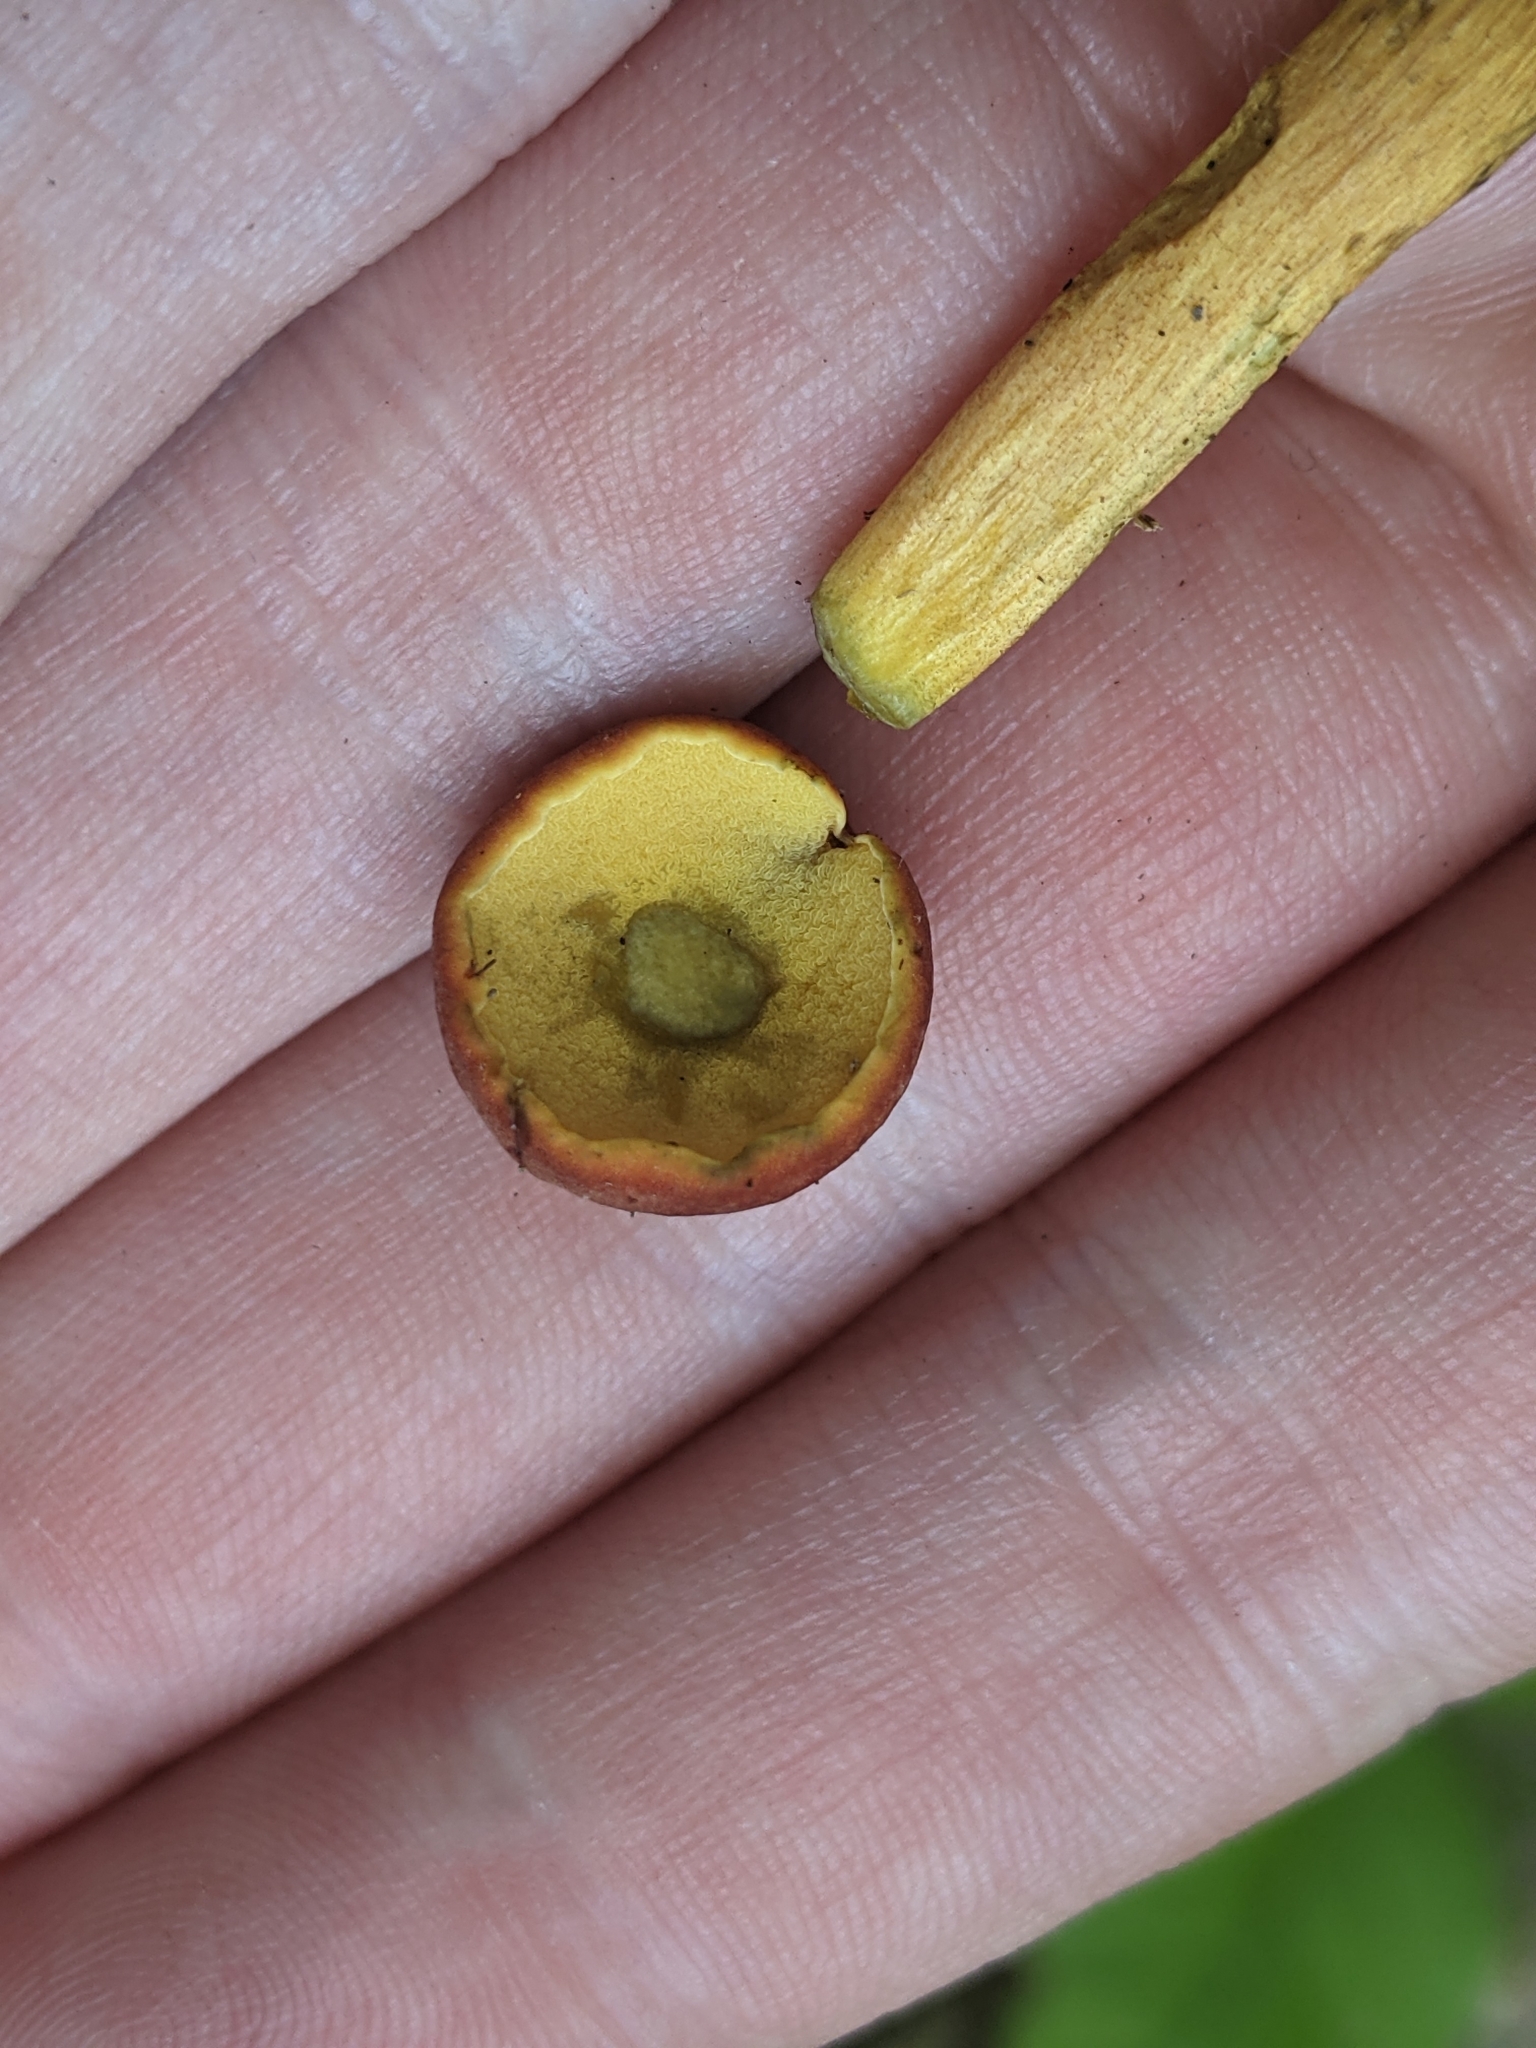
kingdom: Fungi
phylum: Basidiomycota
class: Agaricomycetes
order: Boletales
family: Boletaceae
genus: Hortiboletus
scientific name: Hortiboletus rubellus
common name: Ruby bolete
